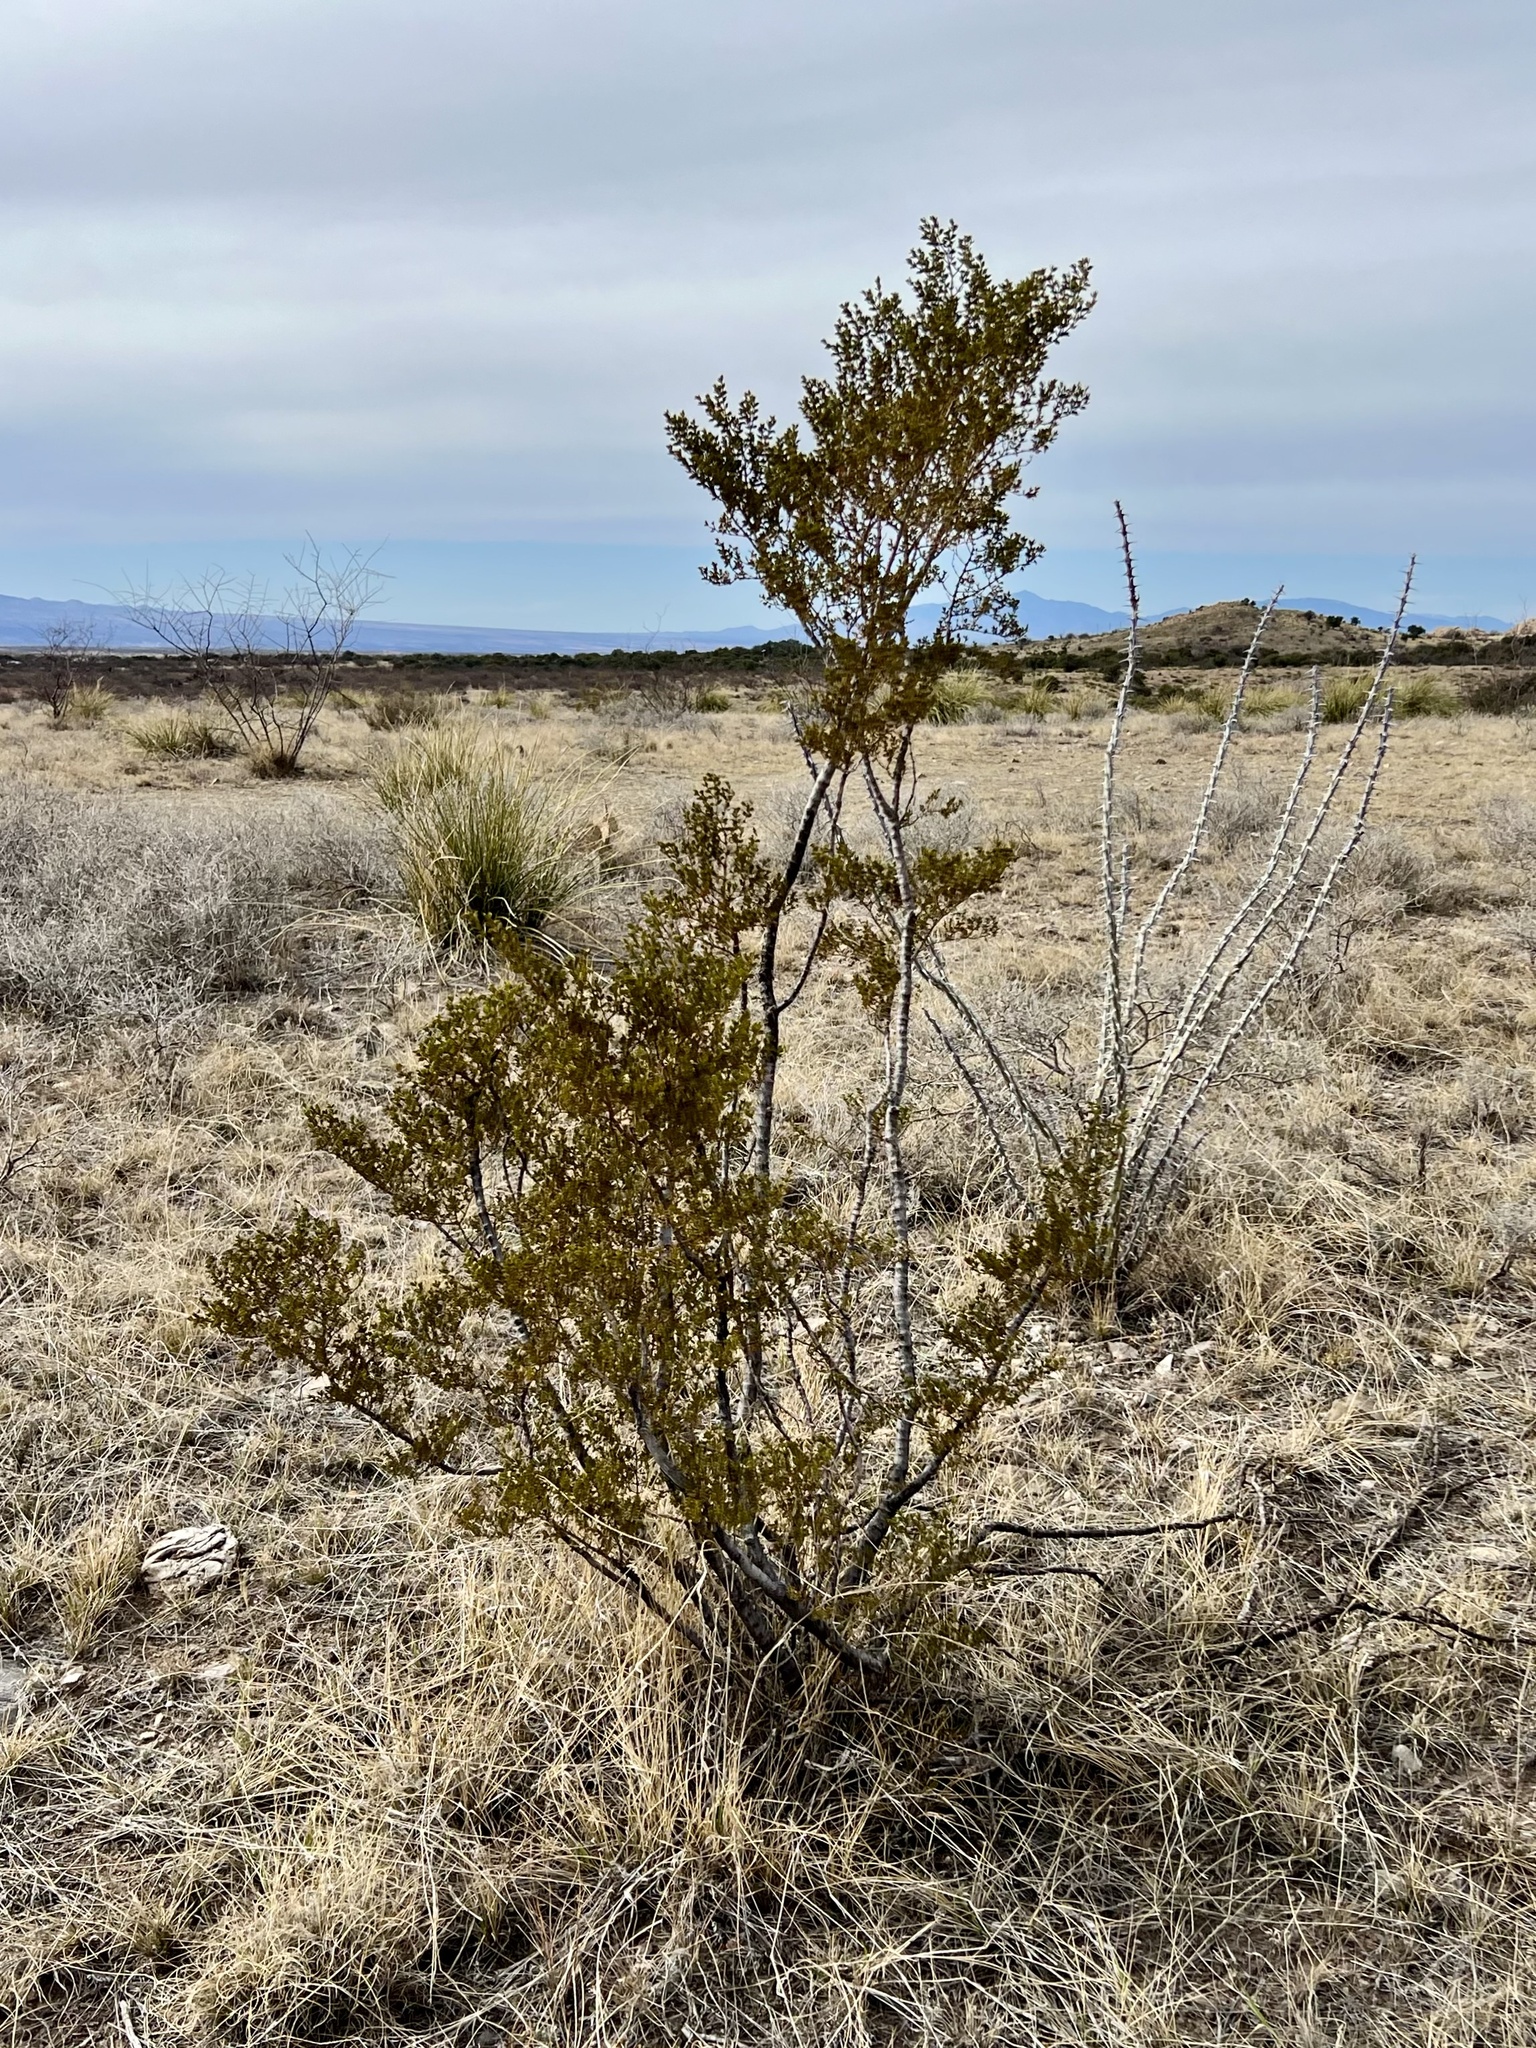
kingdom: Plantae
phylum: Tracheophyta
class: Magnoliopsida
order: Zygophyllales
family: Zygophyllaceae
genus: Larrea
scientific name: Larrea tridentata
